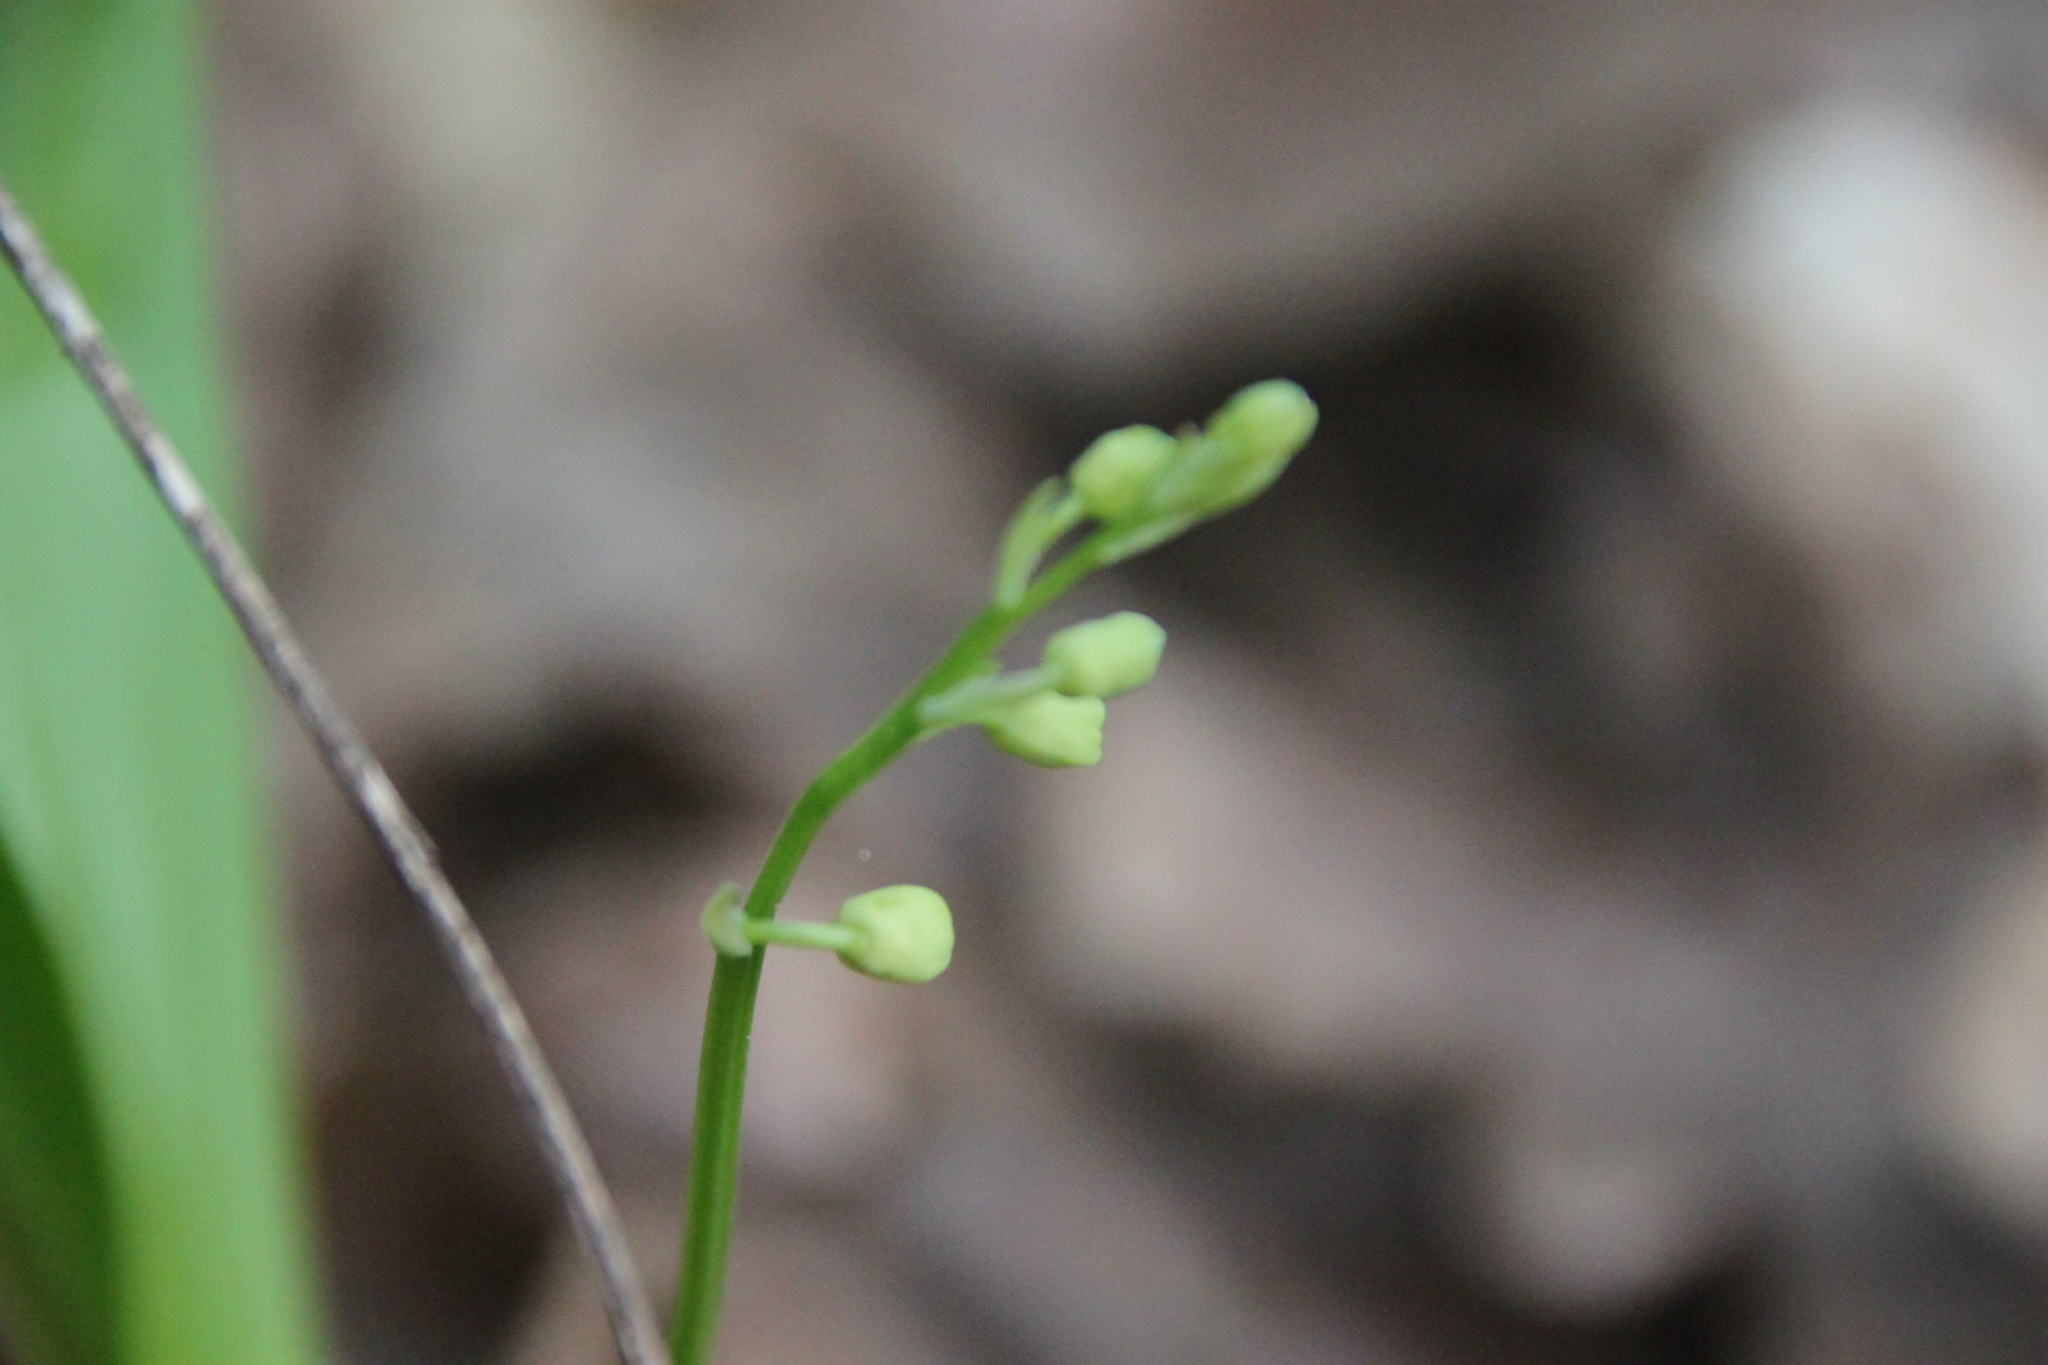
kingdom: Plantae
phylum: Tracheophyta
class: Liliopsida
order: Asparagales
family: Asparagaceae
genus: Convallaria
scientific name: Convallaria majalis
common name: Lily-of-the-valley
